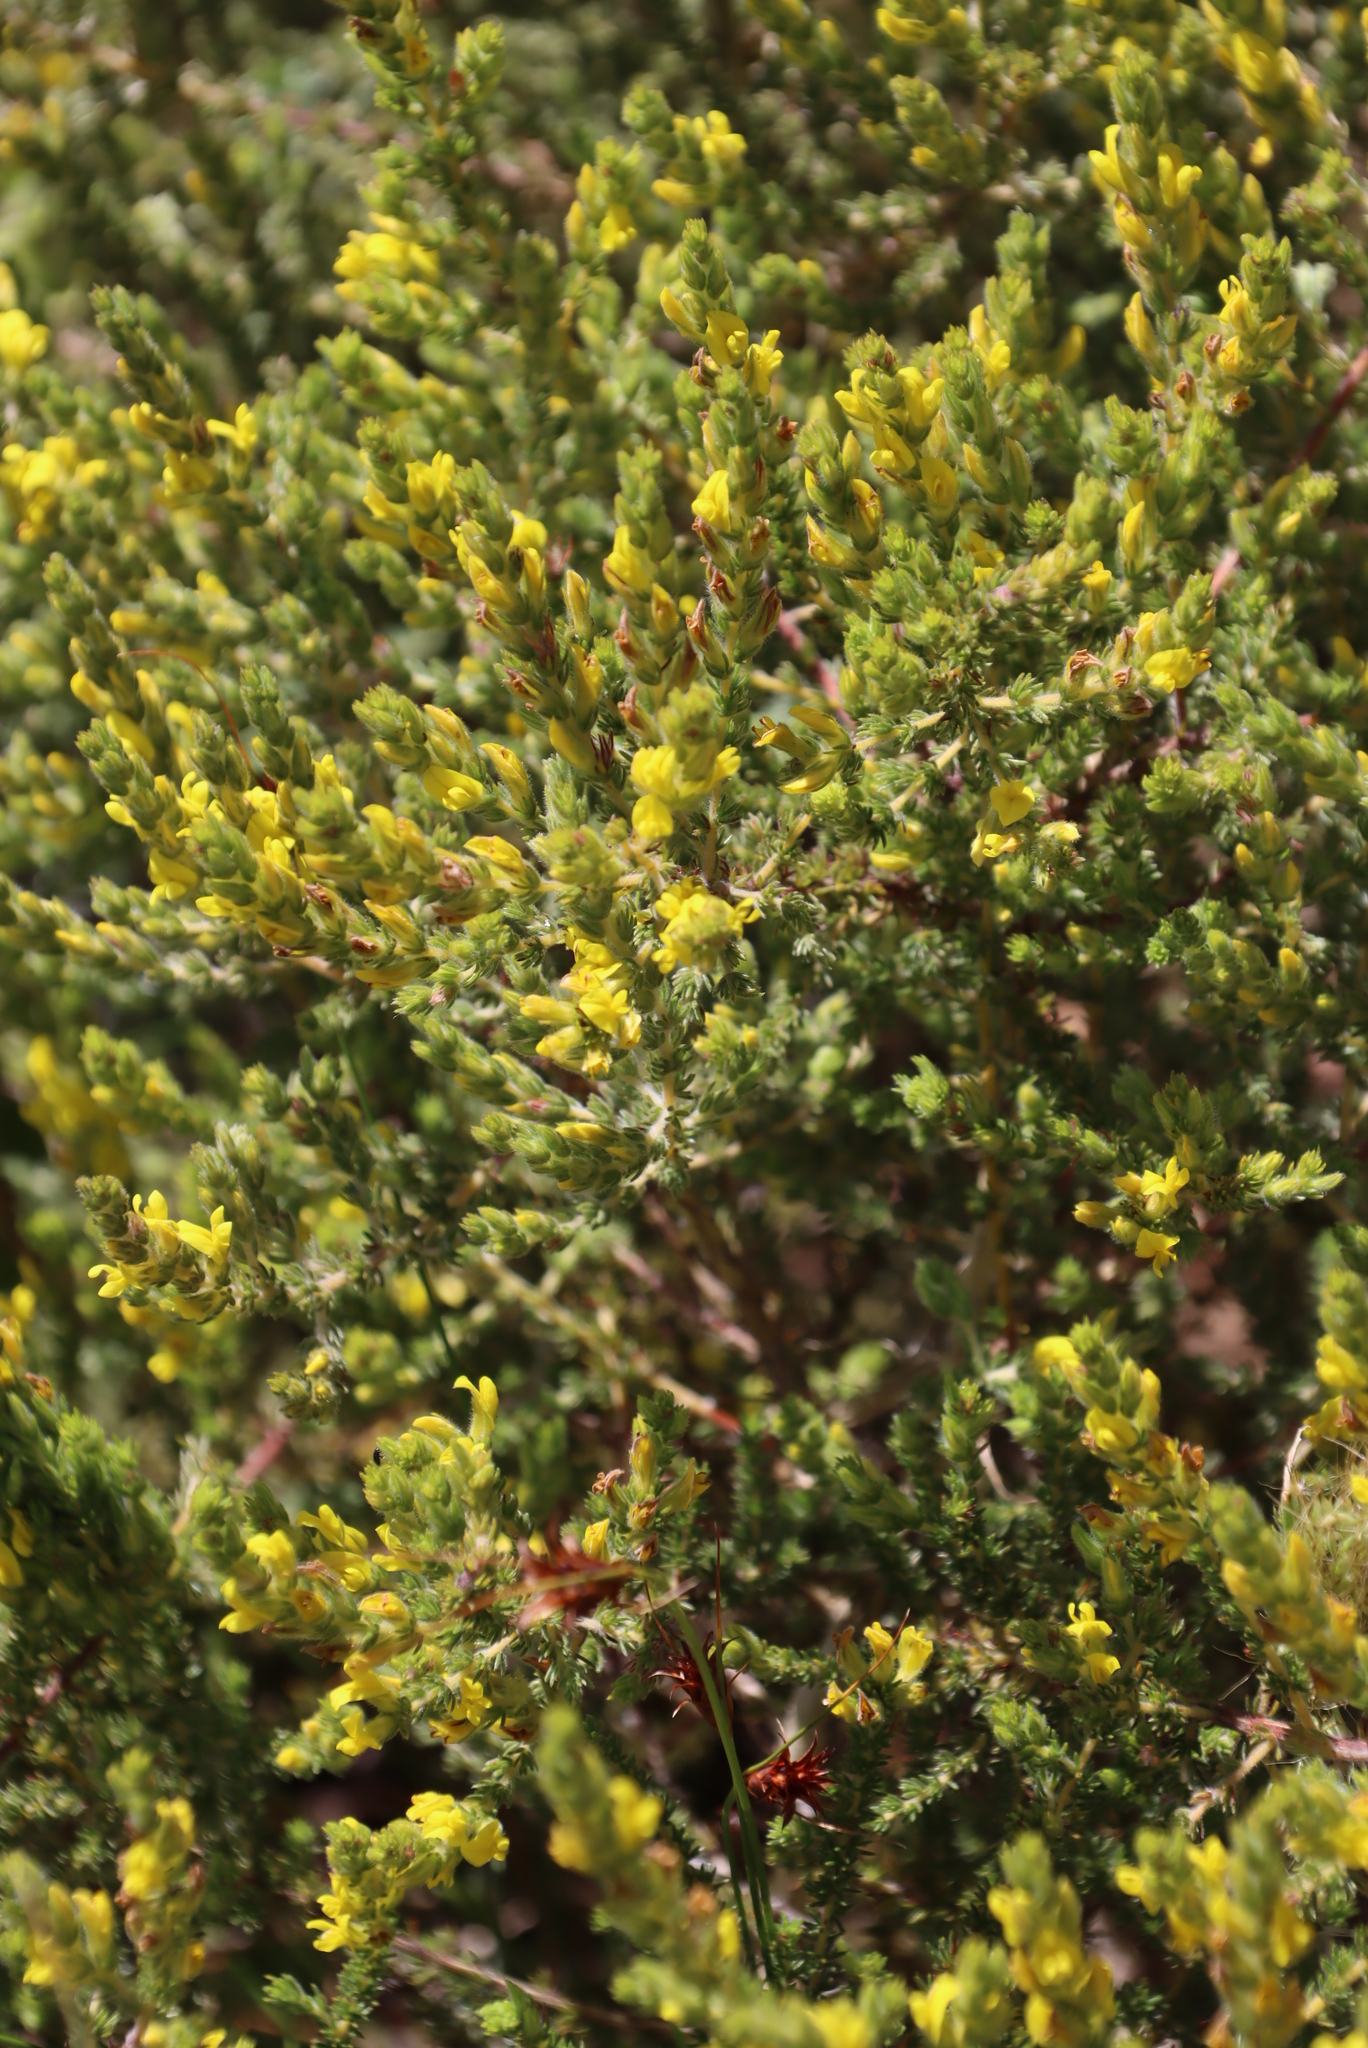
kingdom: Plantae
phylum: Tracheophyta
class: Magnoliopsida
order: Fabales
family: Fabaceae
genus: Aspalathus
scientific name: Aspalathus ericifolia
